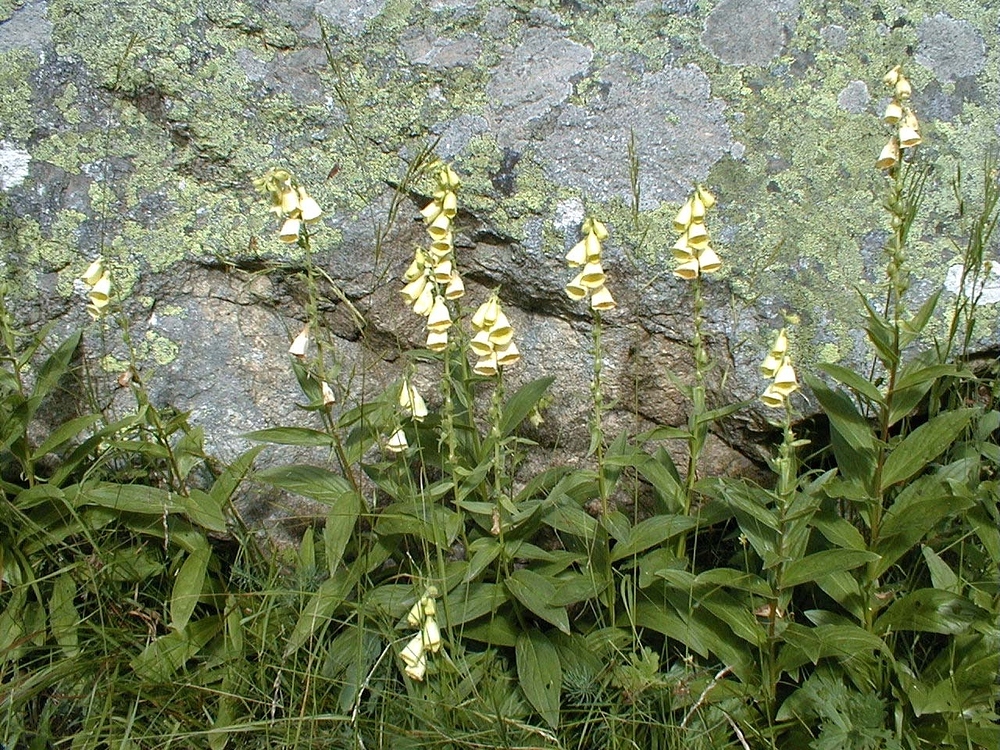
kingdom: Plantae
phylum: Tracheophyta
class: Magnoliopsida
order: Lamiales
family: Plantaginaceae
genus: Digitalis
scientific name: Digitalis grandiflora
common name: Yellow foxglove
